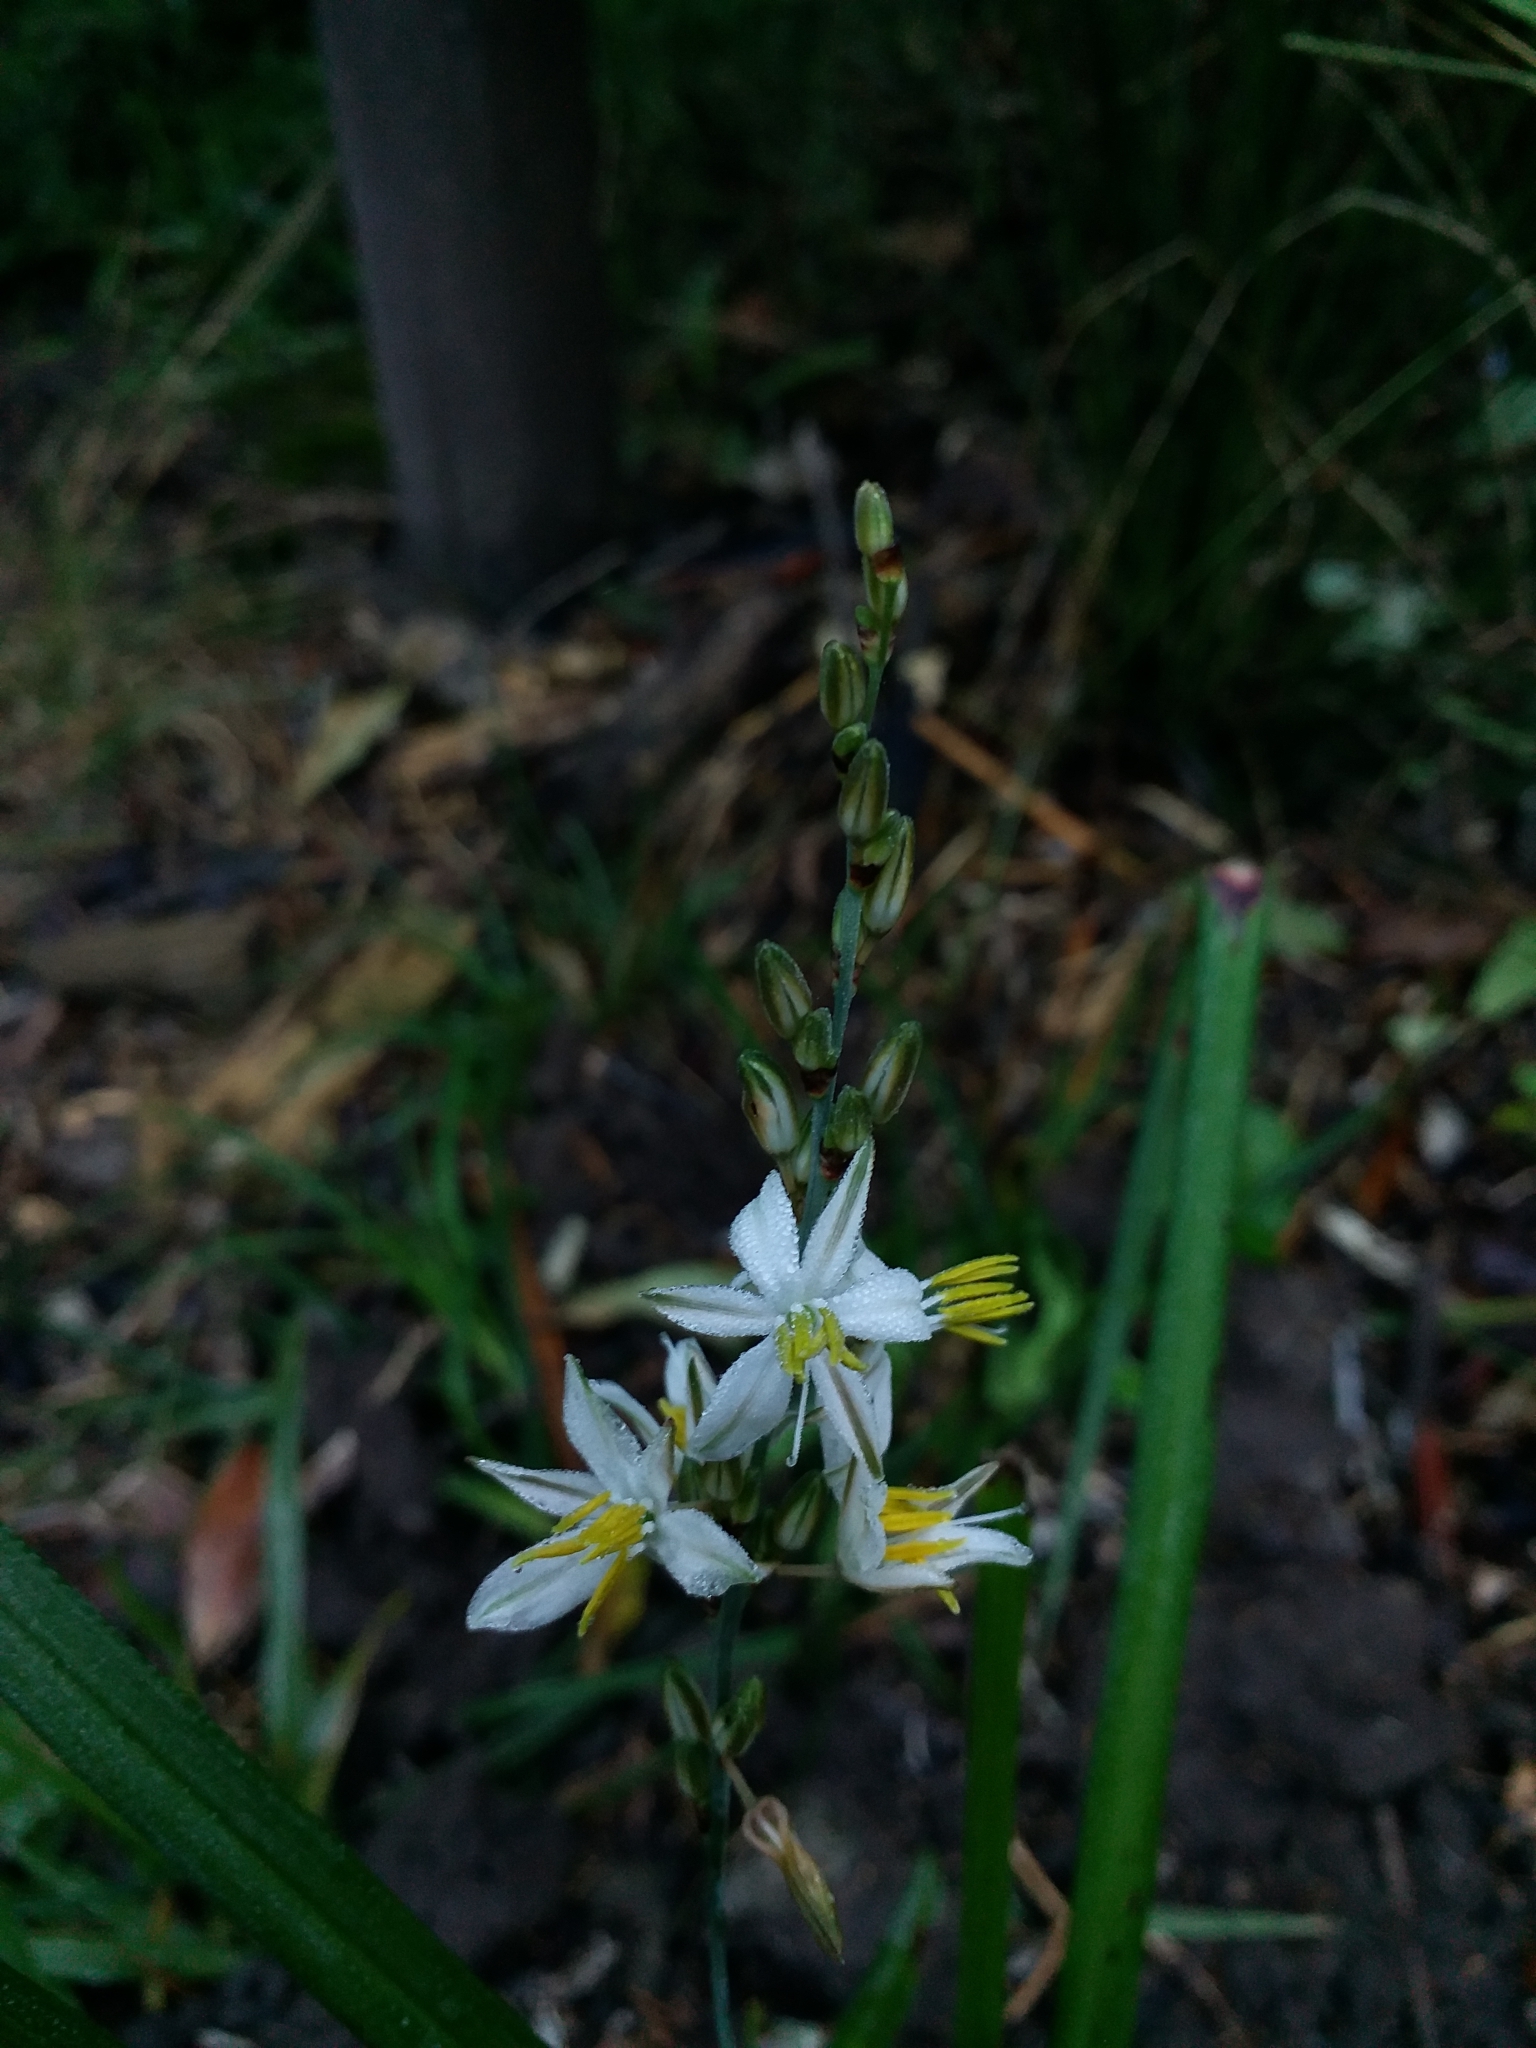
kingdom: Plantae
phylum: Tracheophyta
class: Liliopsida
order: Asparagales
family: Asparagaceae
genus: Chlorophytum
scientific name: Chlorophytum saundersiae
